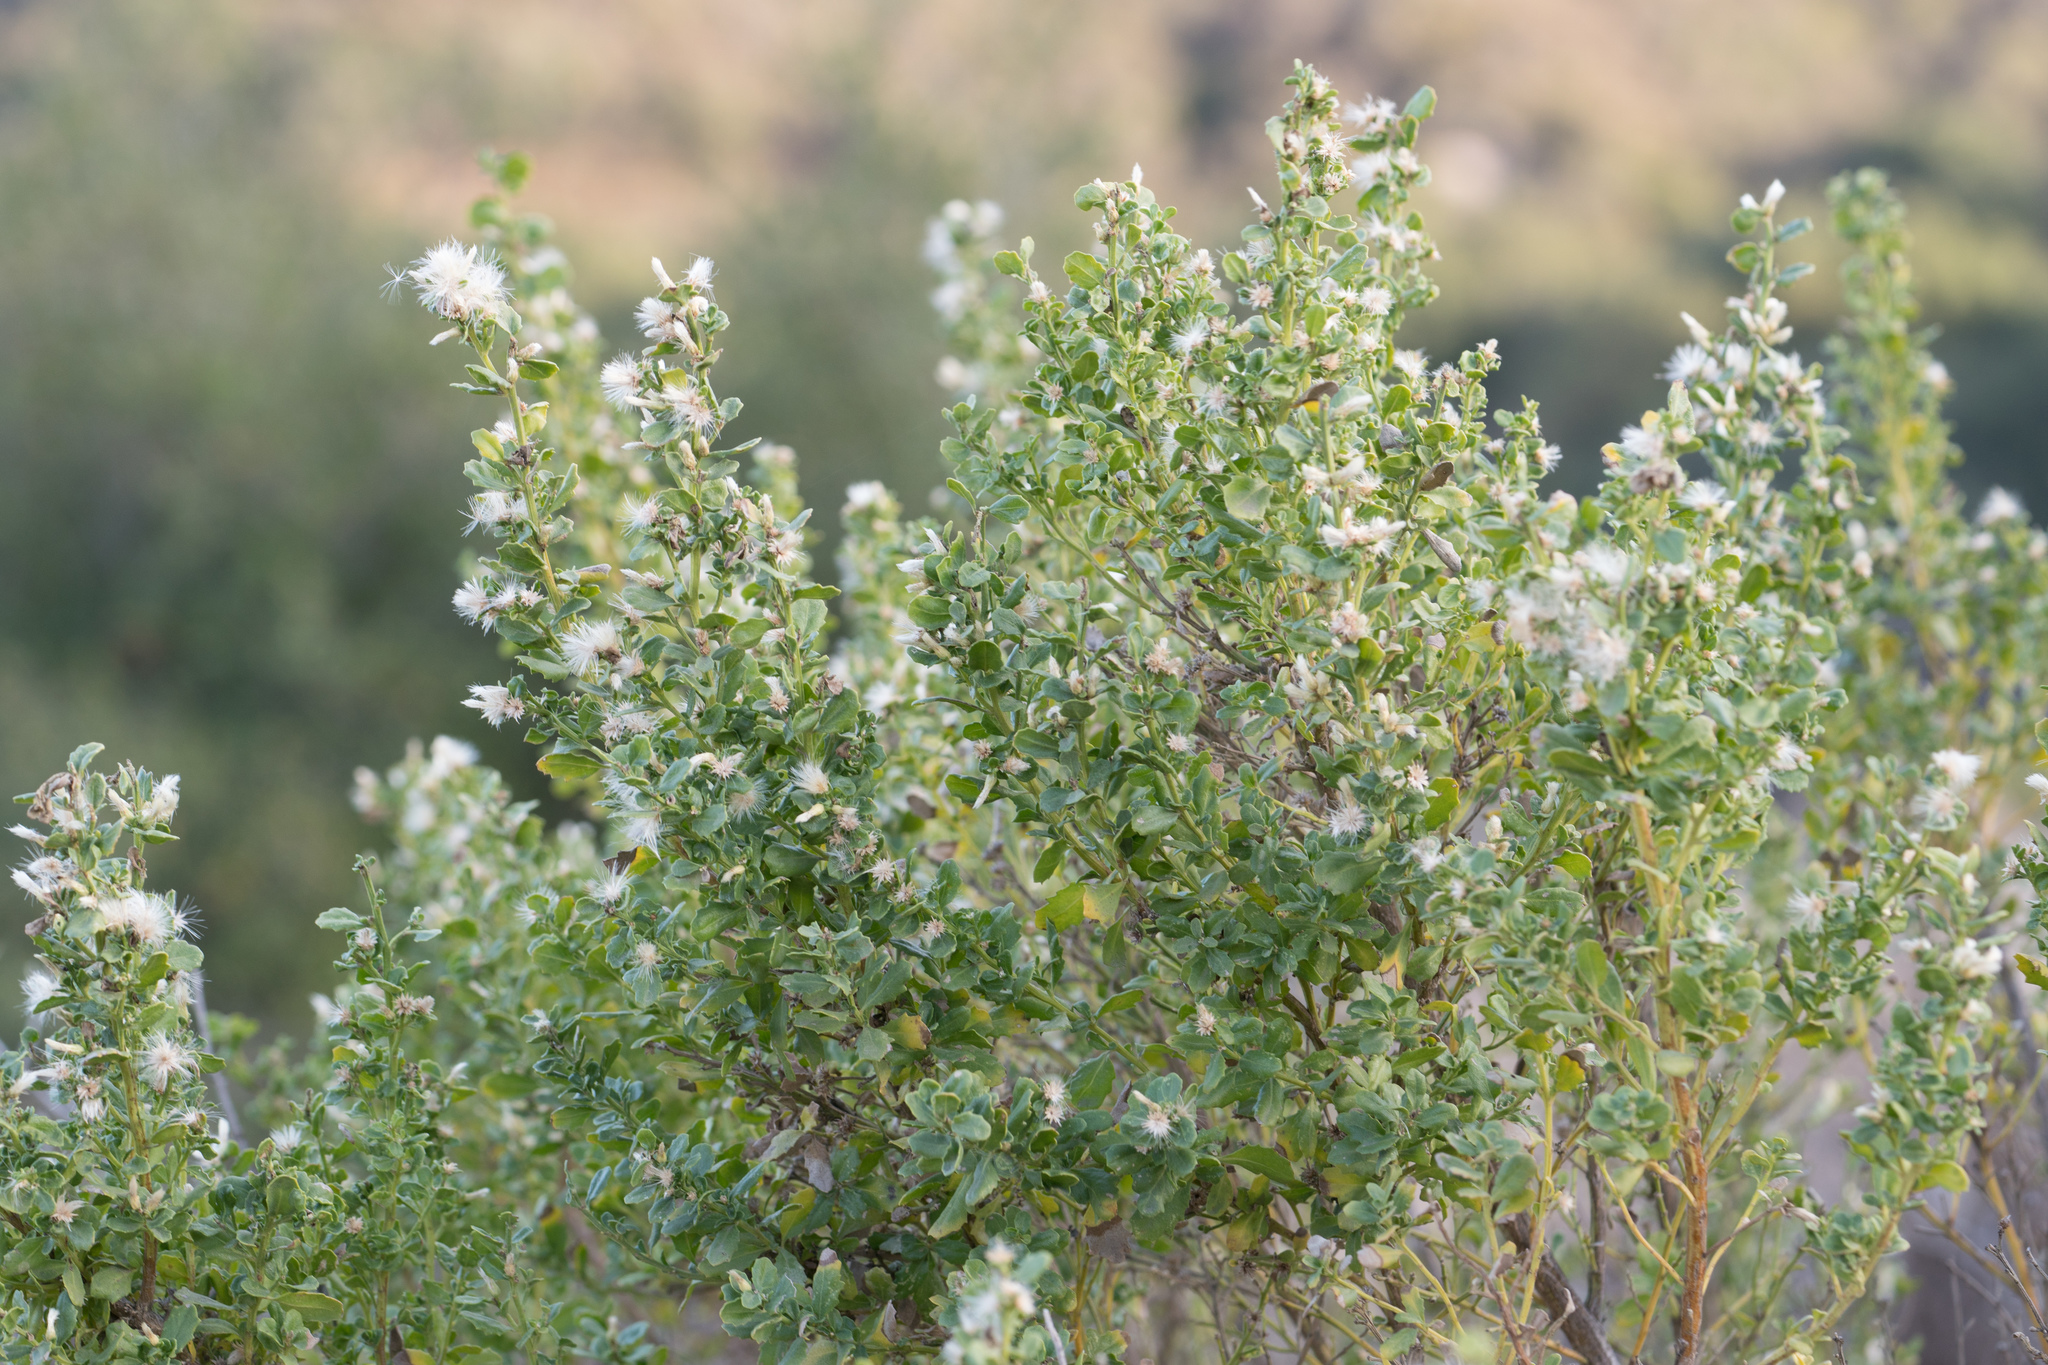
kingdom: Plantae
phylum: Tracheophyta
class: Magnoliopsida
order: Asterales
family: Asteraceae
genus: Baccharis
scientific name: Baccharis pilularis
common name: Coyotebrush
